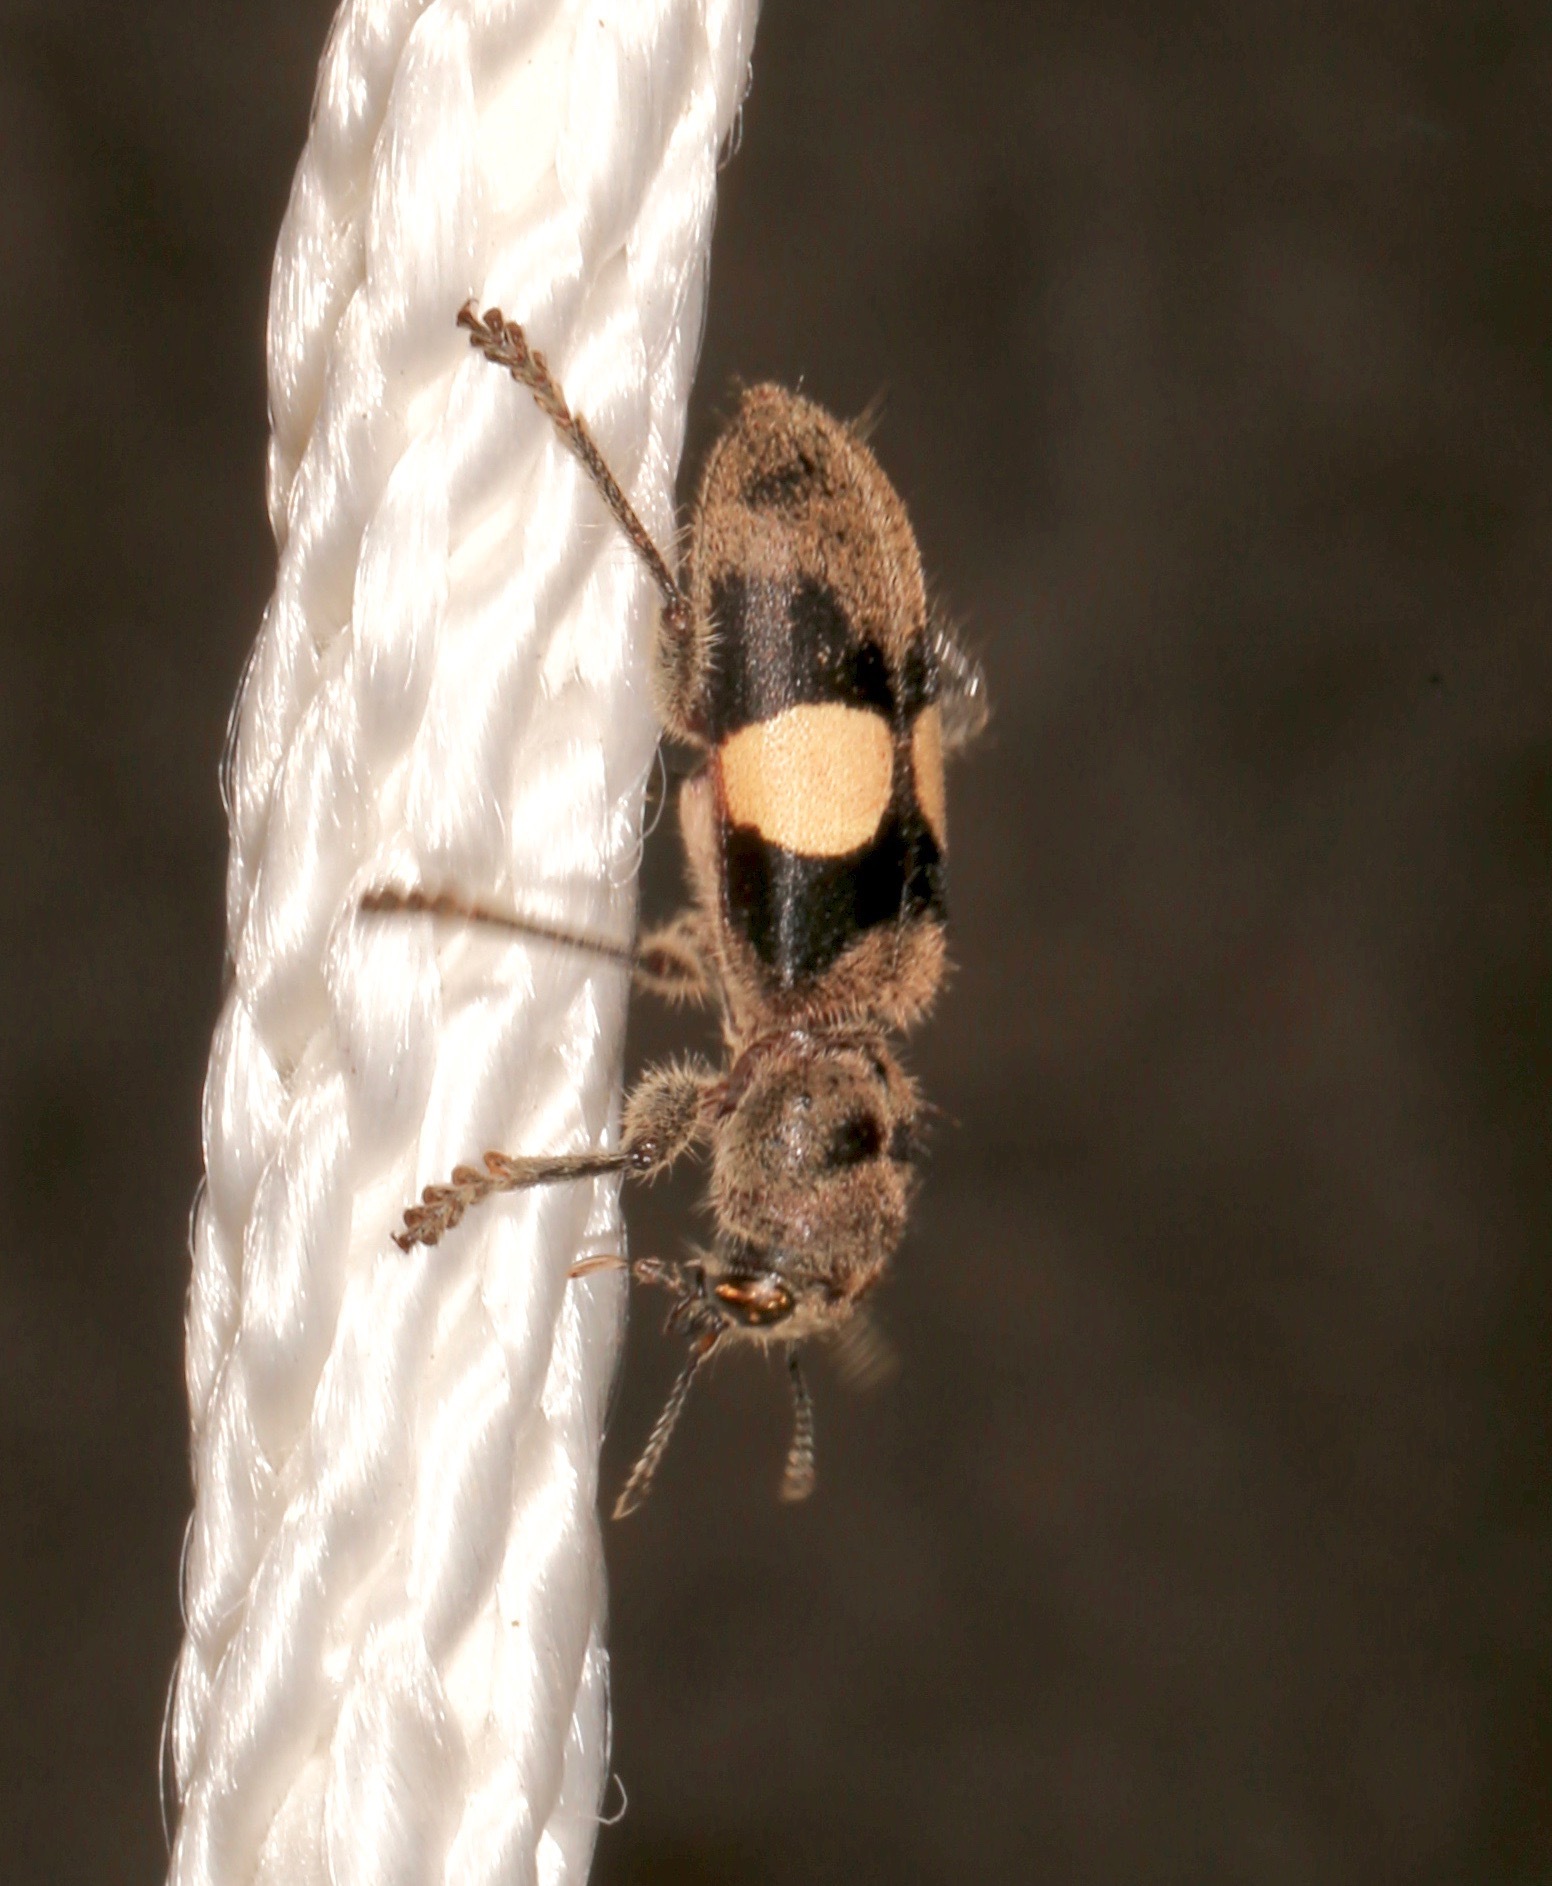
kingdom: Animalia
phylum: Arthropoda
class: Insecta
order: Coleoptera
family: Cleridae
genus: Enoclerus
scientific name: Enoclerus bimaculatus
